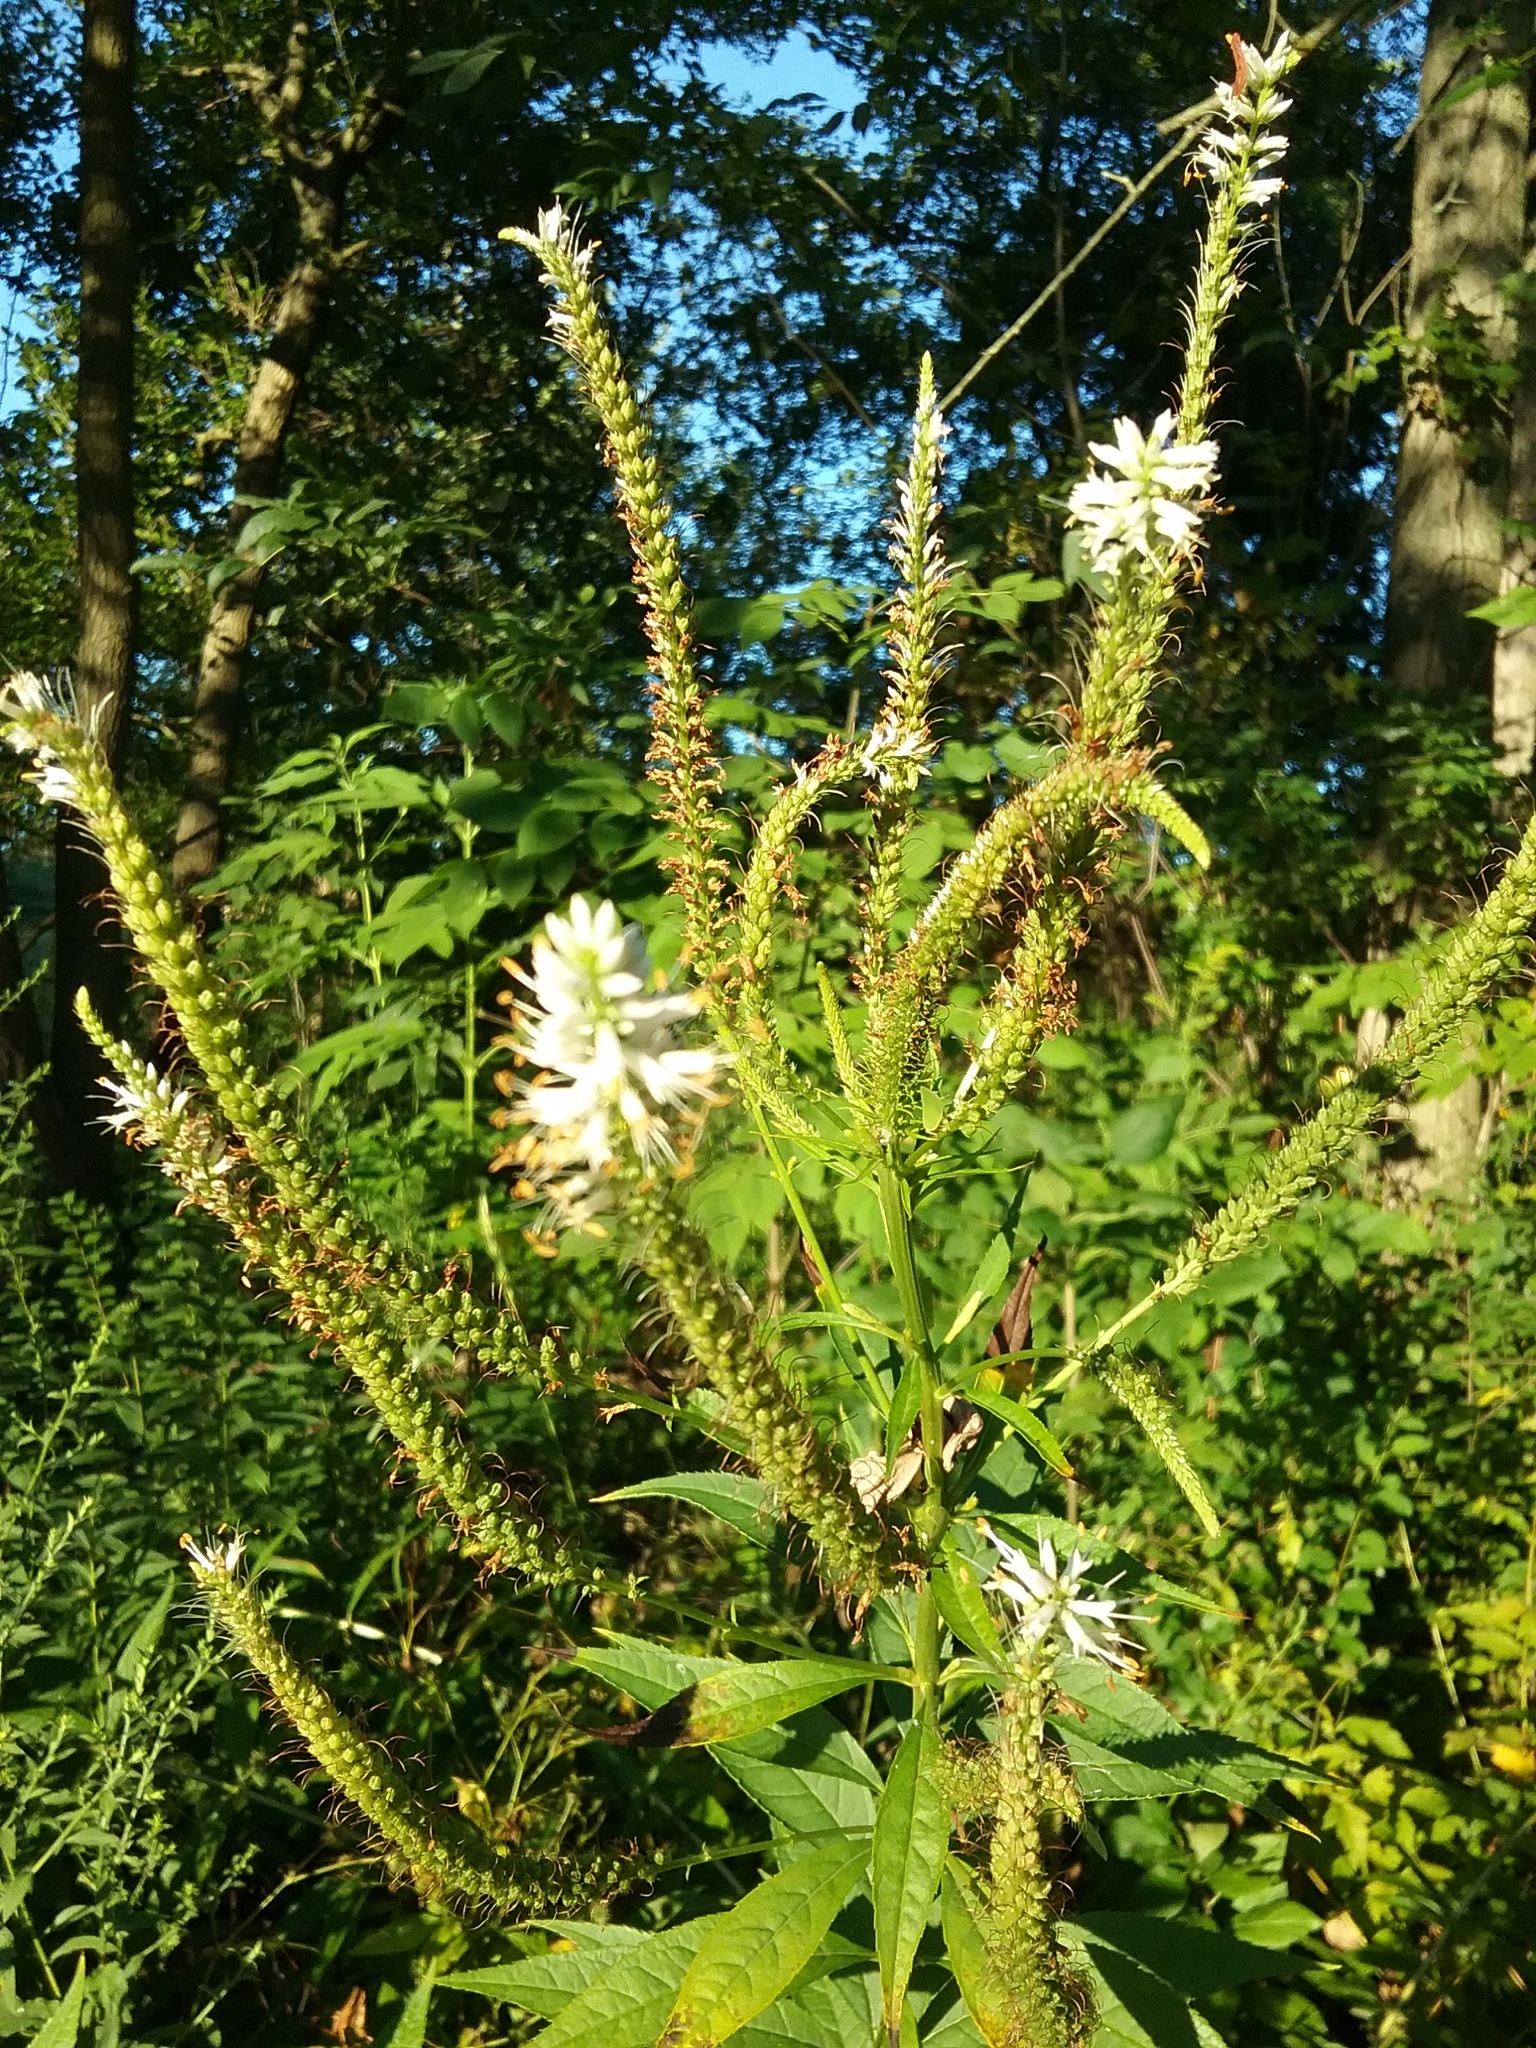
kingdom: Plantae
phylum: Tracheophyta
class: Magnoliopsida
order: Lamiales
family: Plantaginaceae
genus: Veronicastrum
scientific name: Veronicastrum virginicum
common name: Blackroot
